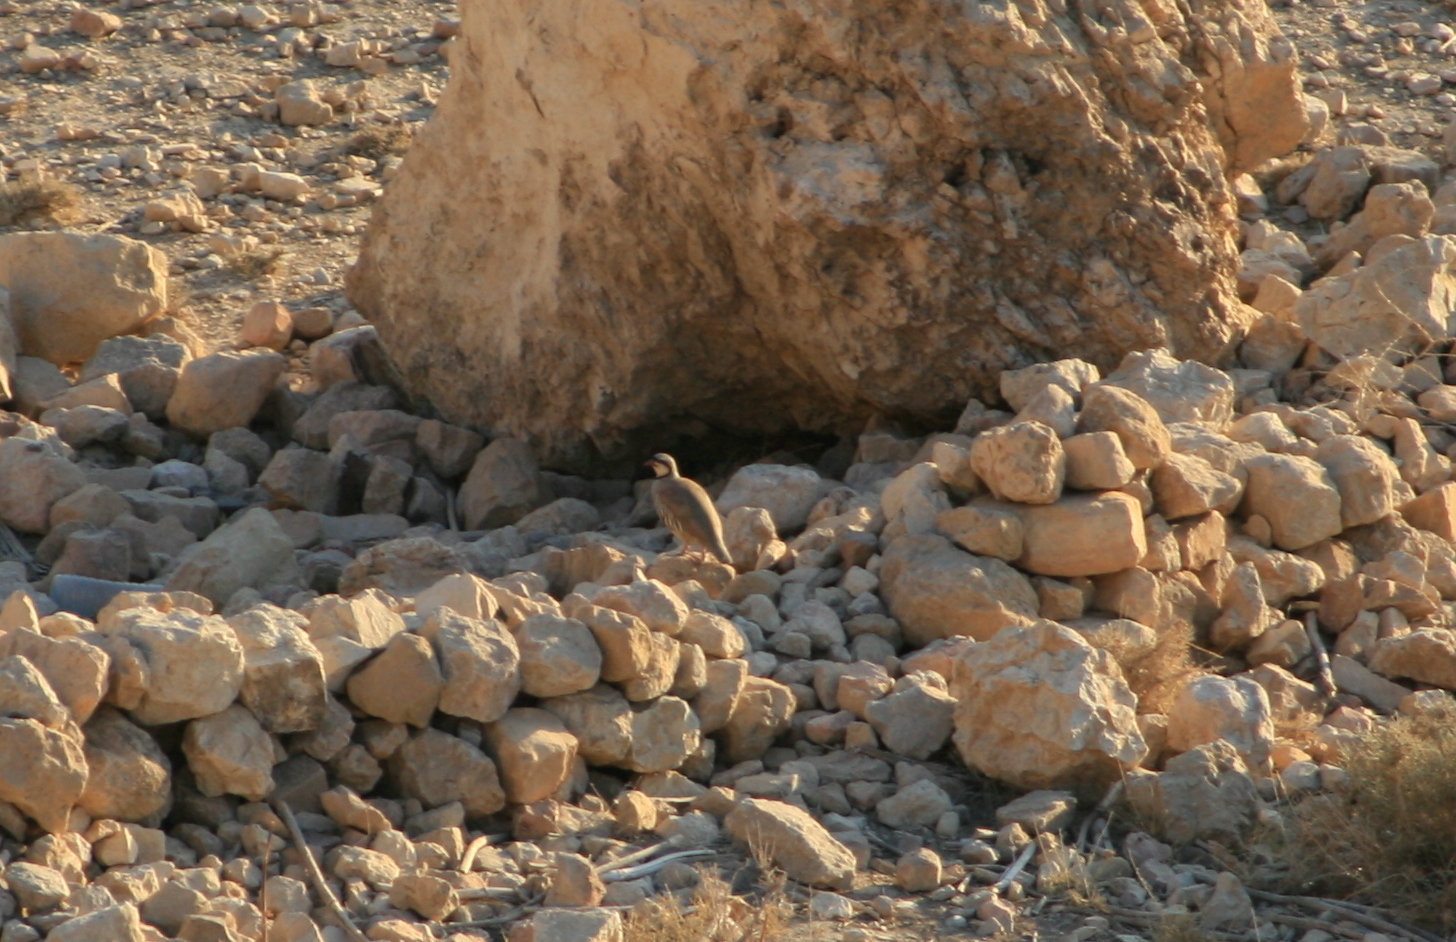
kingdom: Animalia
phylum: Chordata
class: Aves
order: Galliformes
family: Phasianidae
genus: Alectoris
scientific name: Alectoris chukar
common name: Chukar
